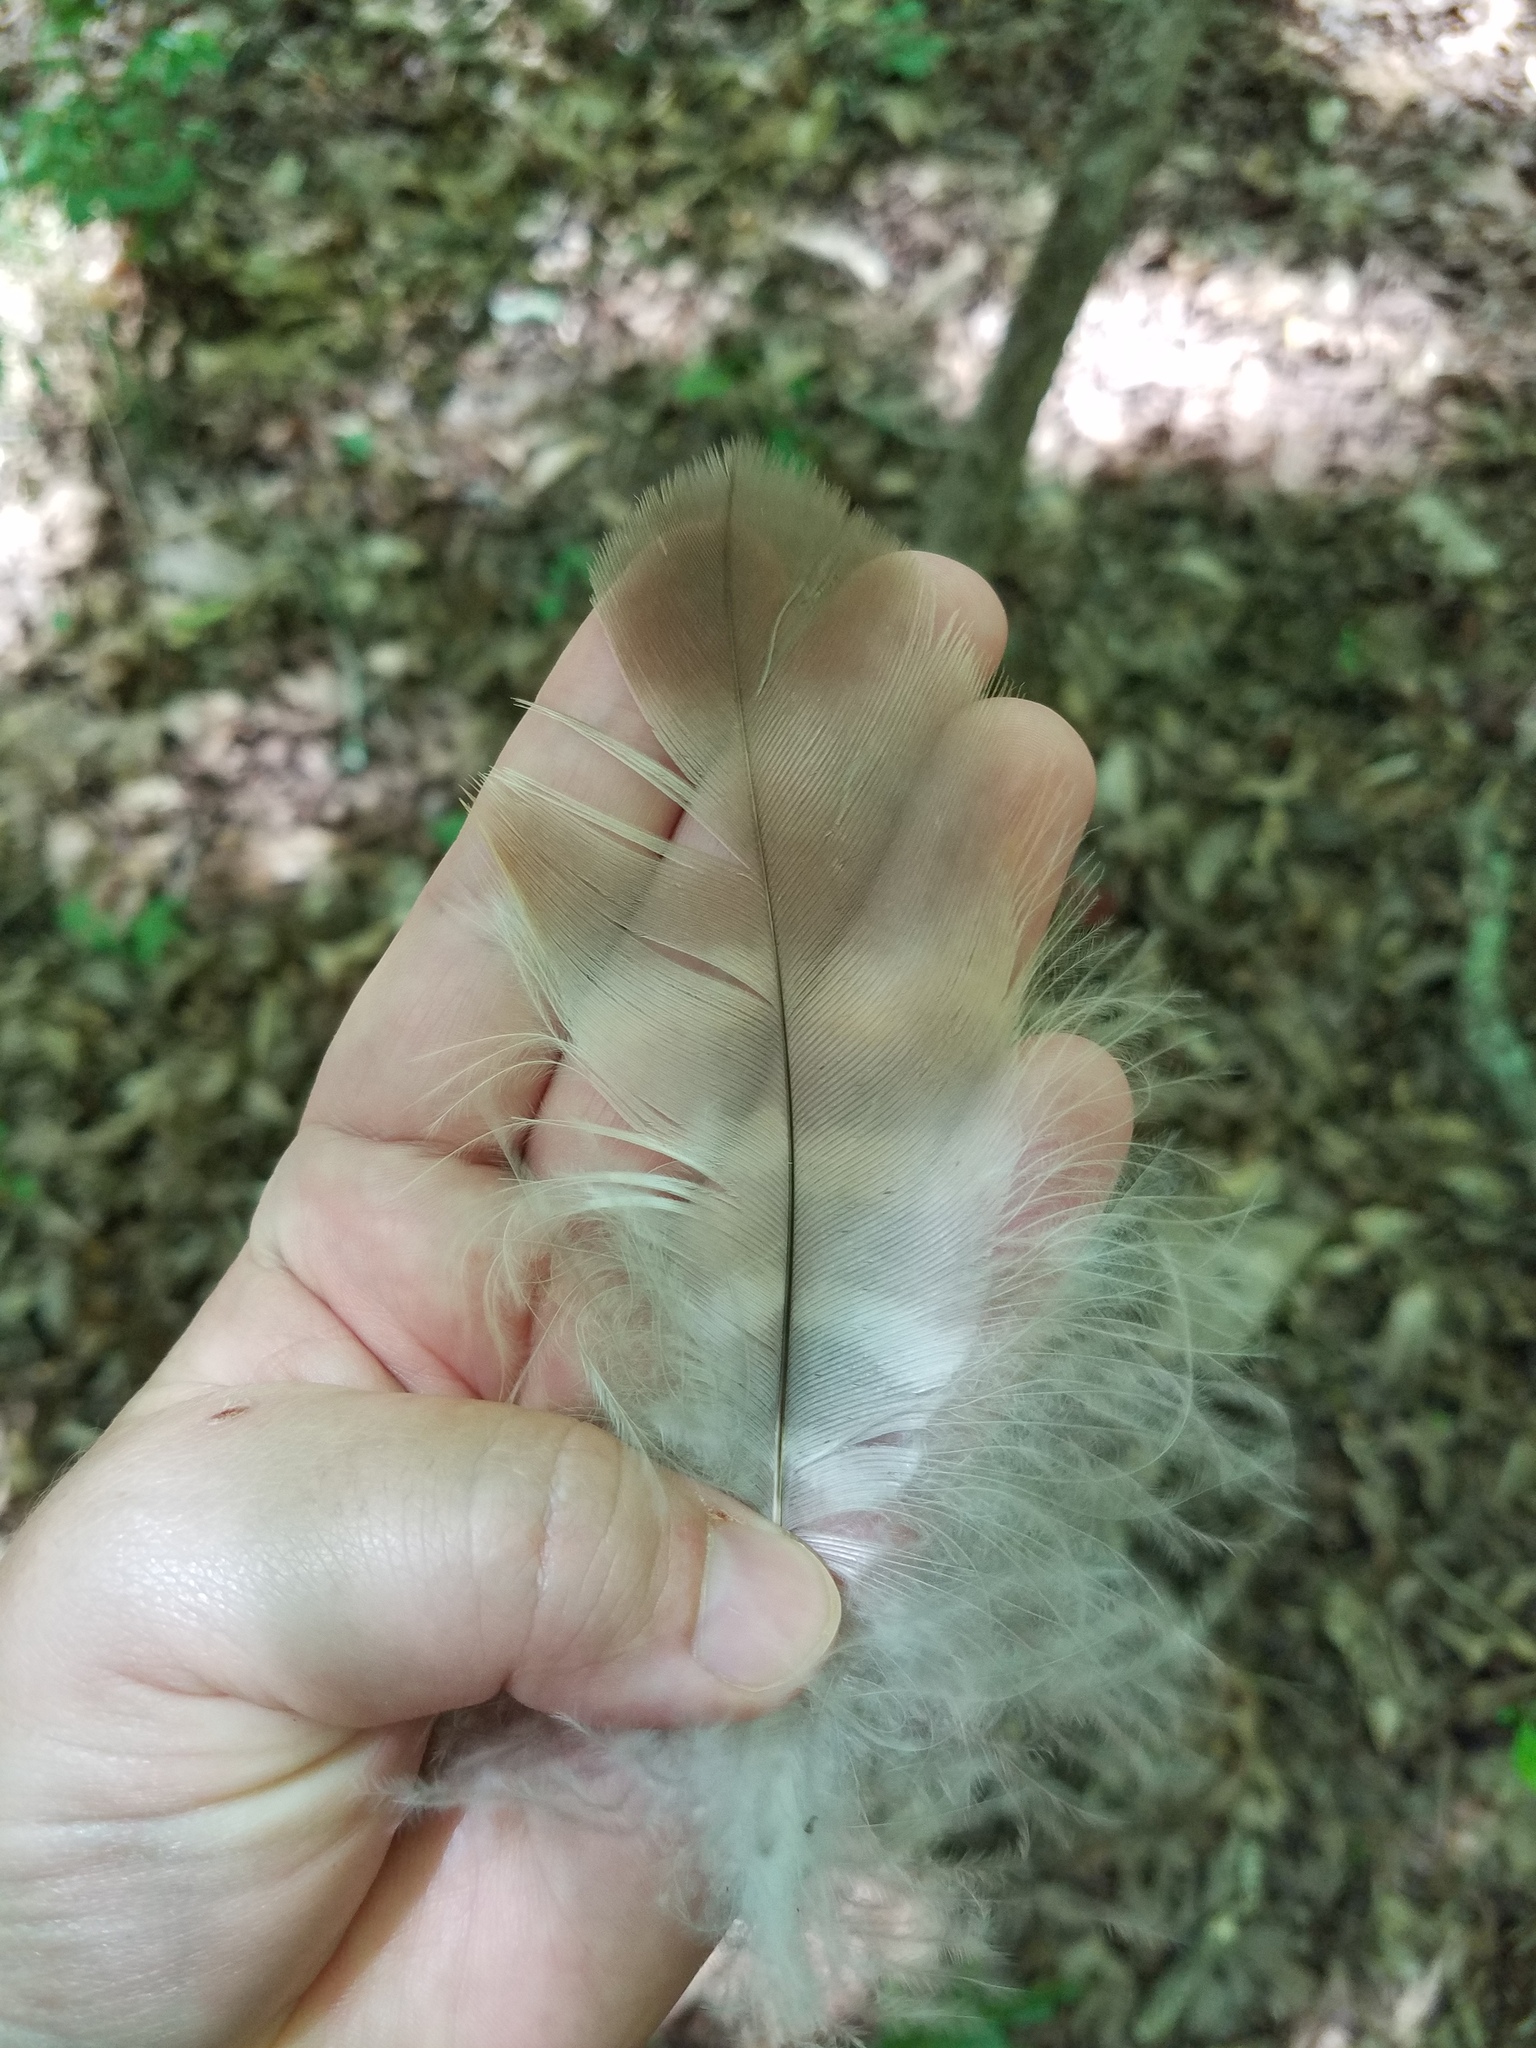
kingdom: Animalia
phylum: Chordata
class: Aves
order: Accipitriformes
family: Accipitridae
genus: Buteo
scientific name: Buteo lineatus
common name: Red-shouldered hawk
